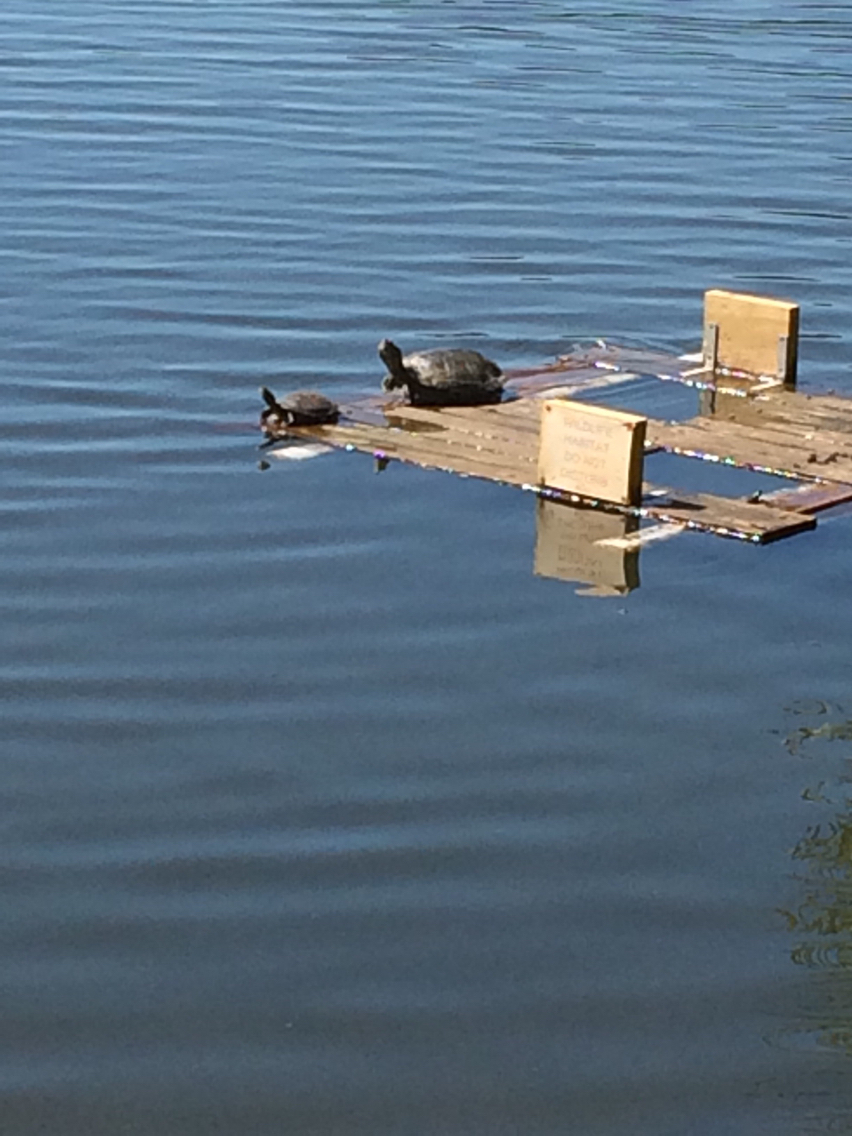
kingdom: Animalia
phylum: Chordata
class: Testudines
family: Emydidae
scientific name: Emydidae
